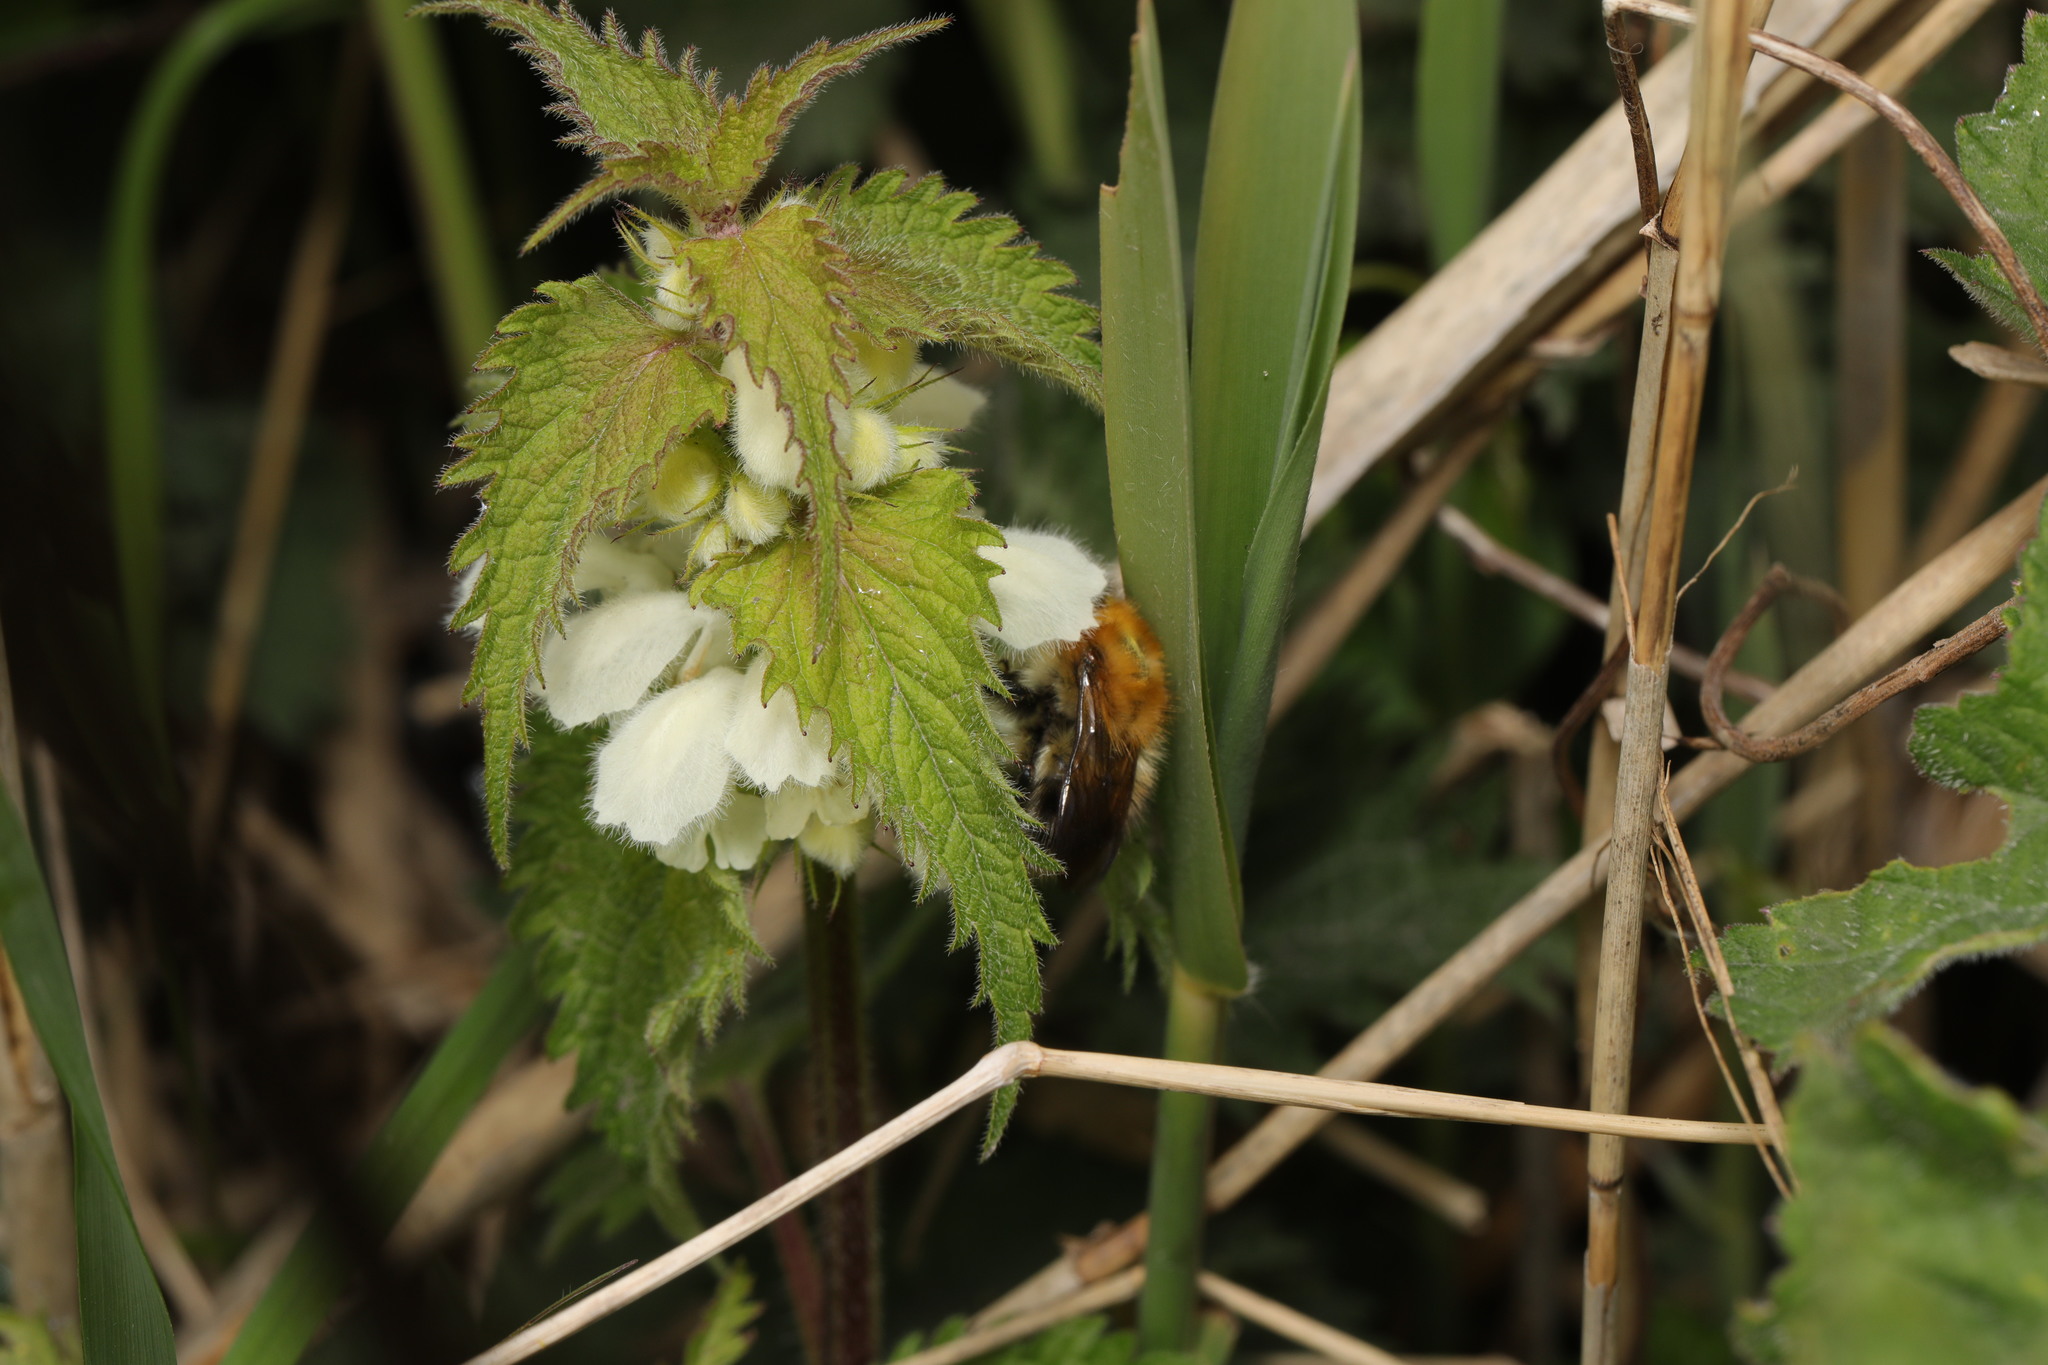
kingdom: Animalia
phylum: Arthropoda
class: Insecta
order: Hymenoptera
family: Apidae
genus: Bombus
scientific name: Bombus pascuorum
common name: Common carder bee
